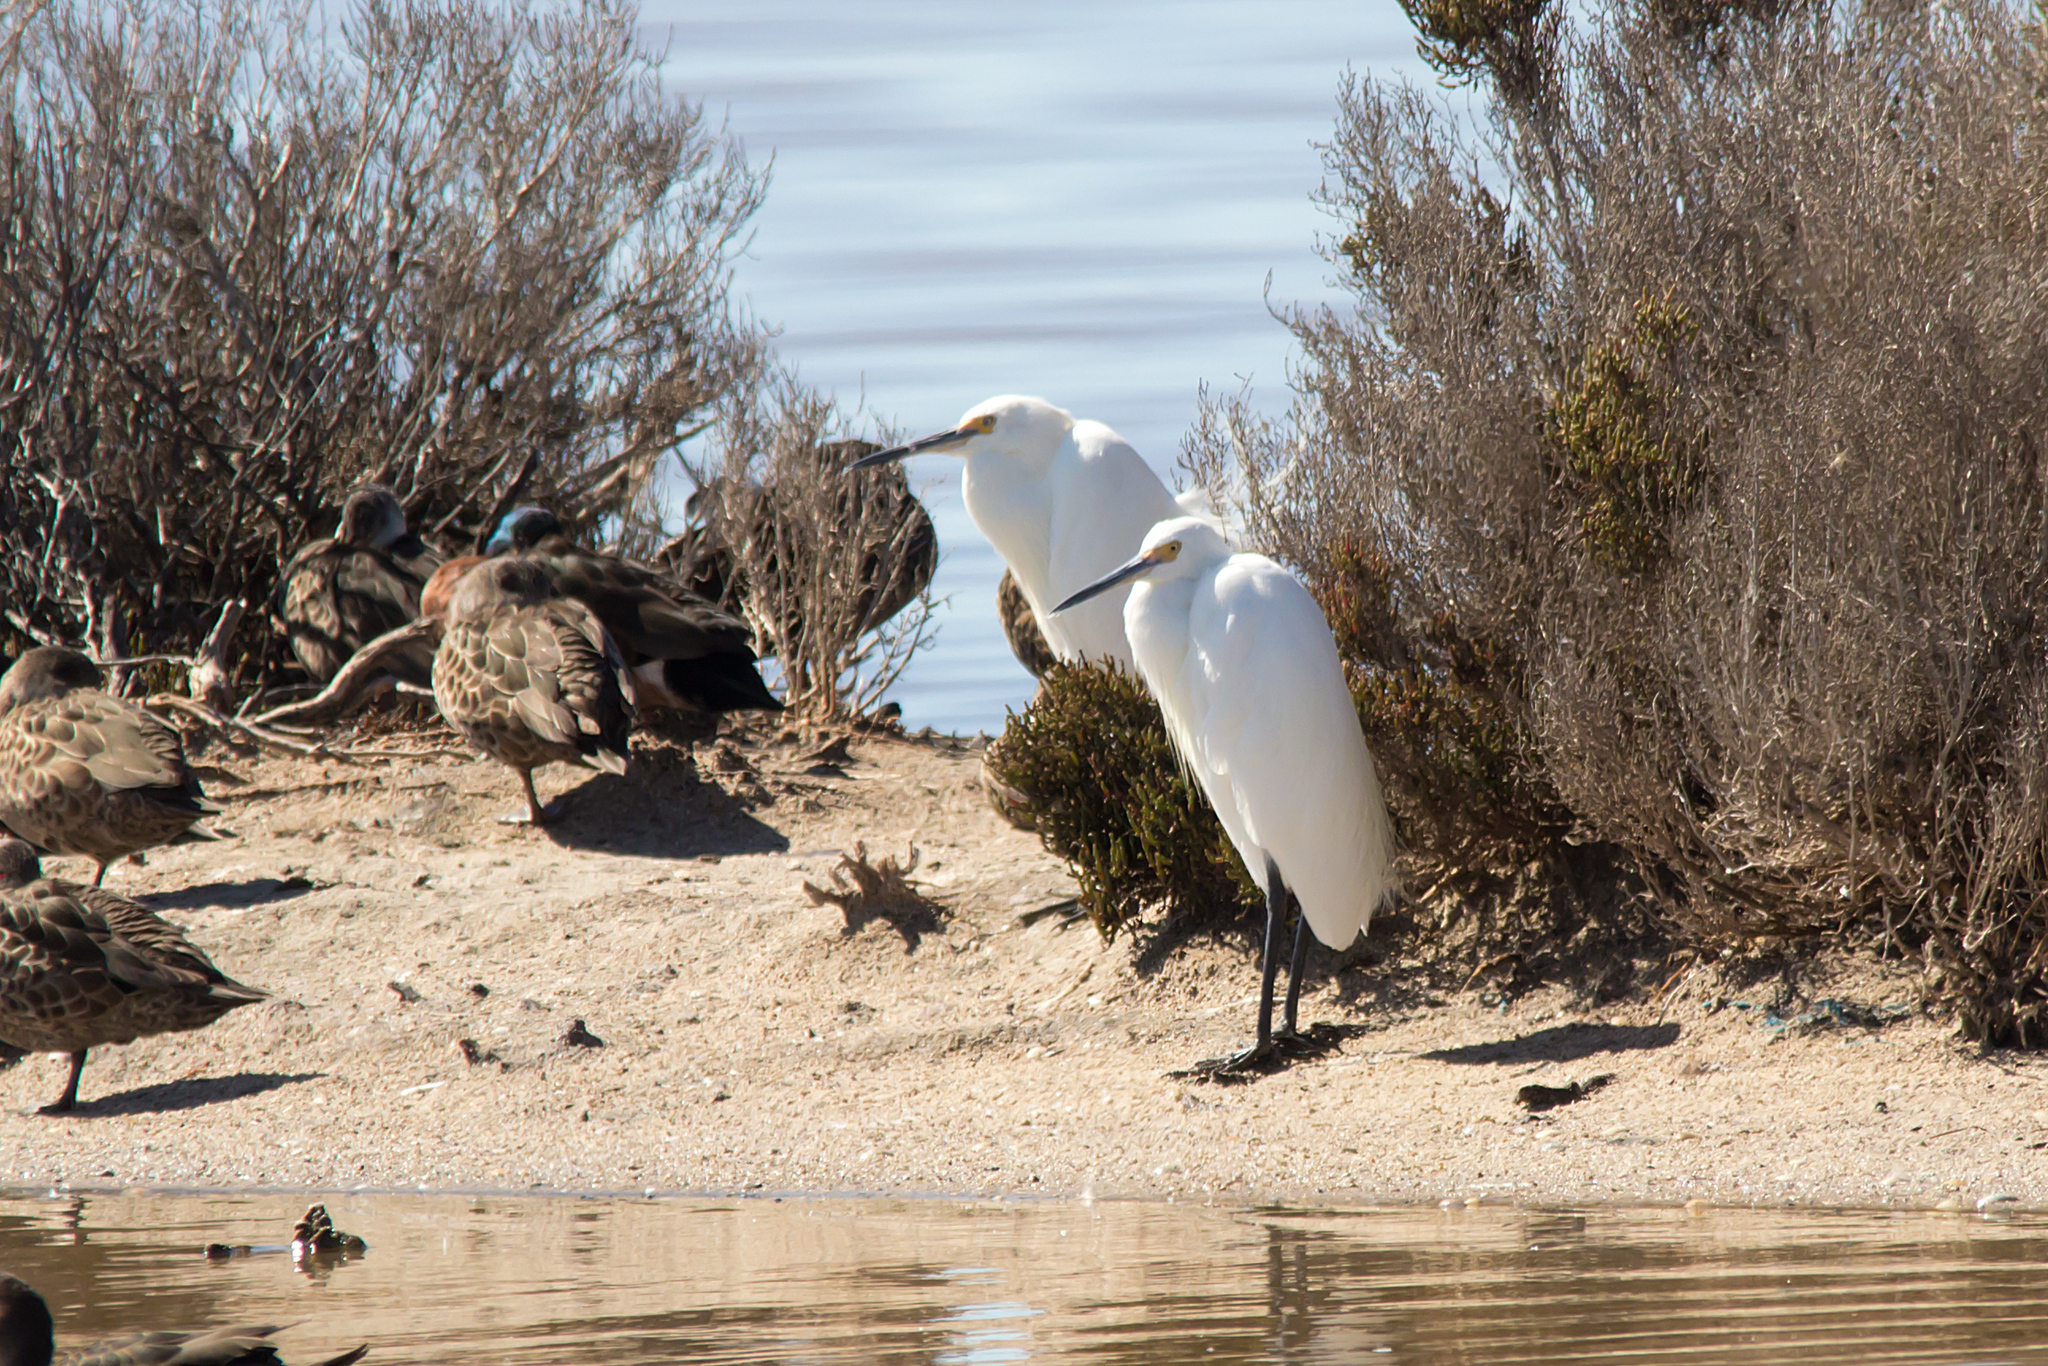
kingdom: Animalia
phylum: Chordata
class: Aves
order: Pelecaniformes
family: Ardeidae
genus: Egretta
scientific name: Egretta garzetta
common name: Little egret
